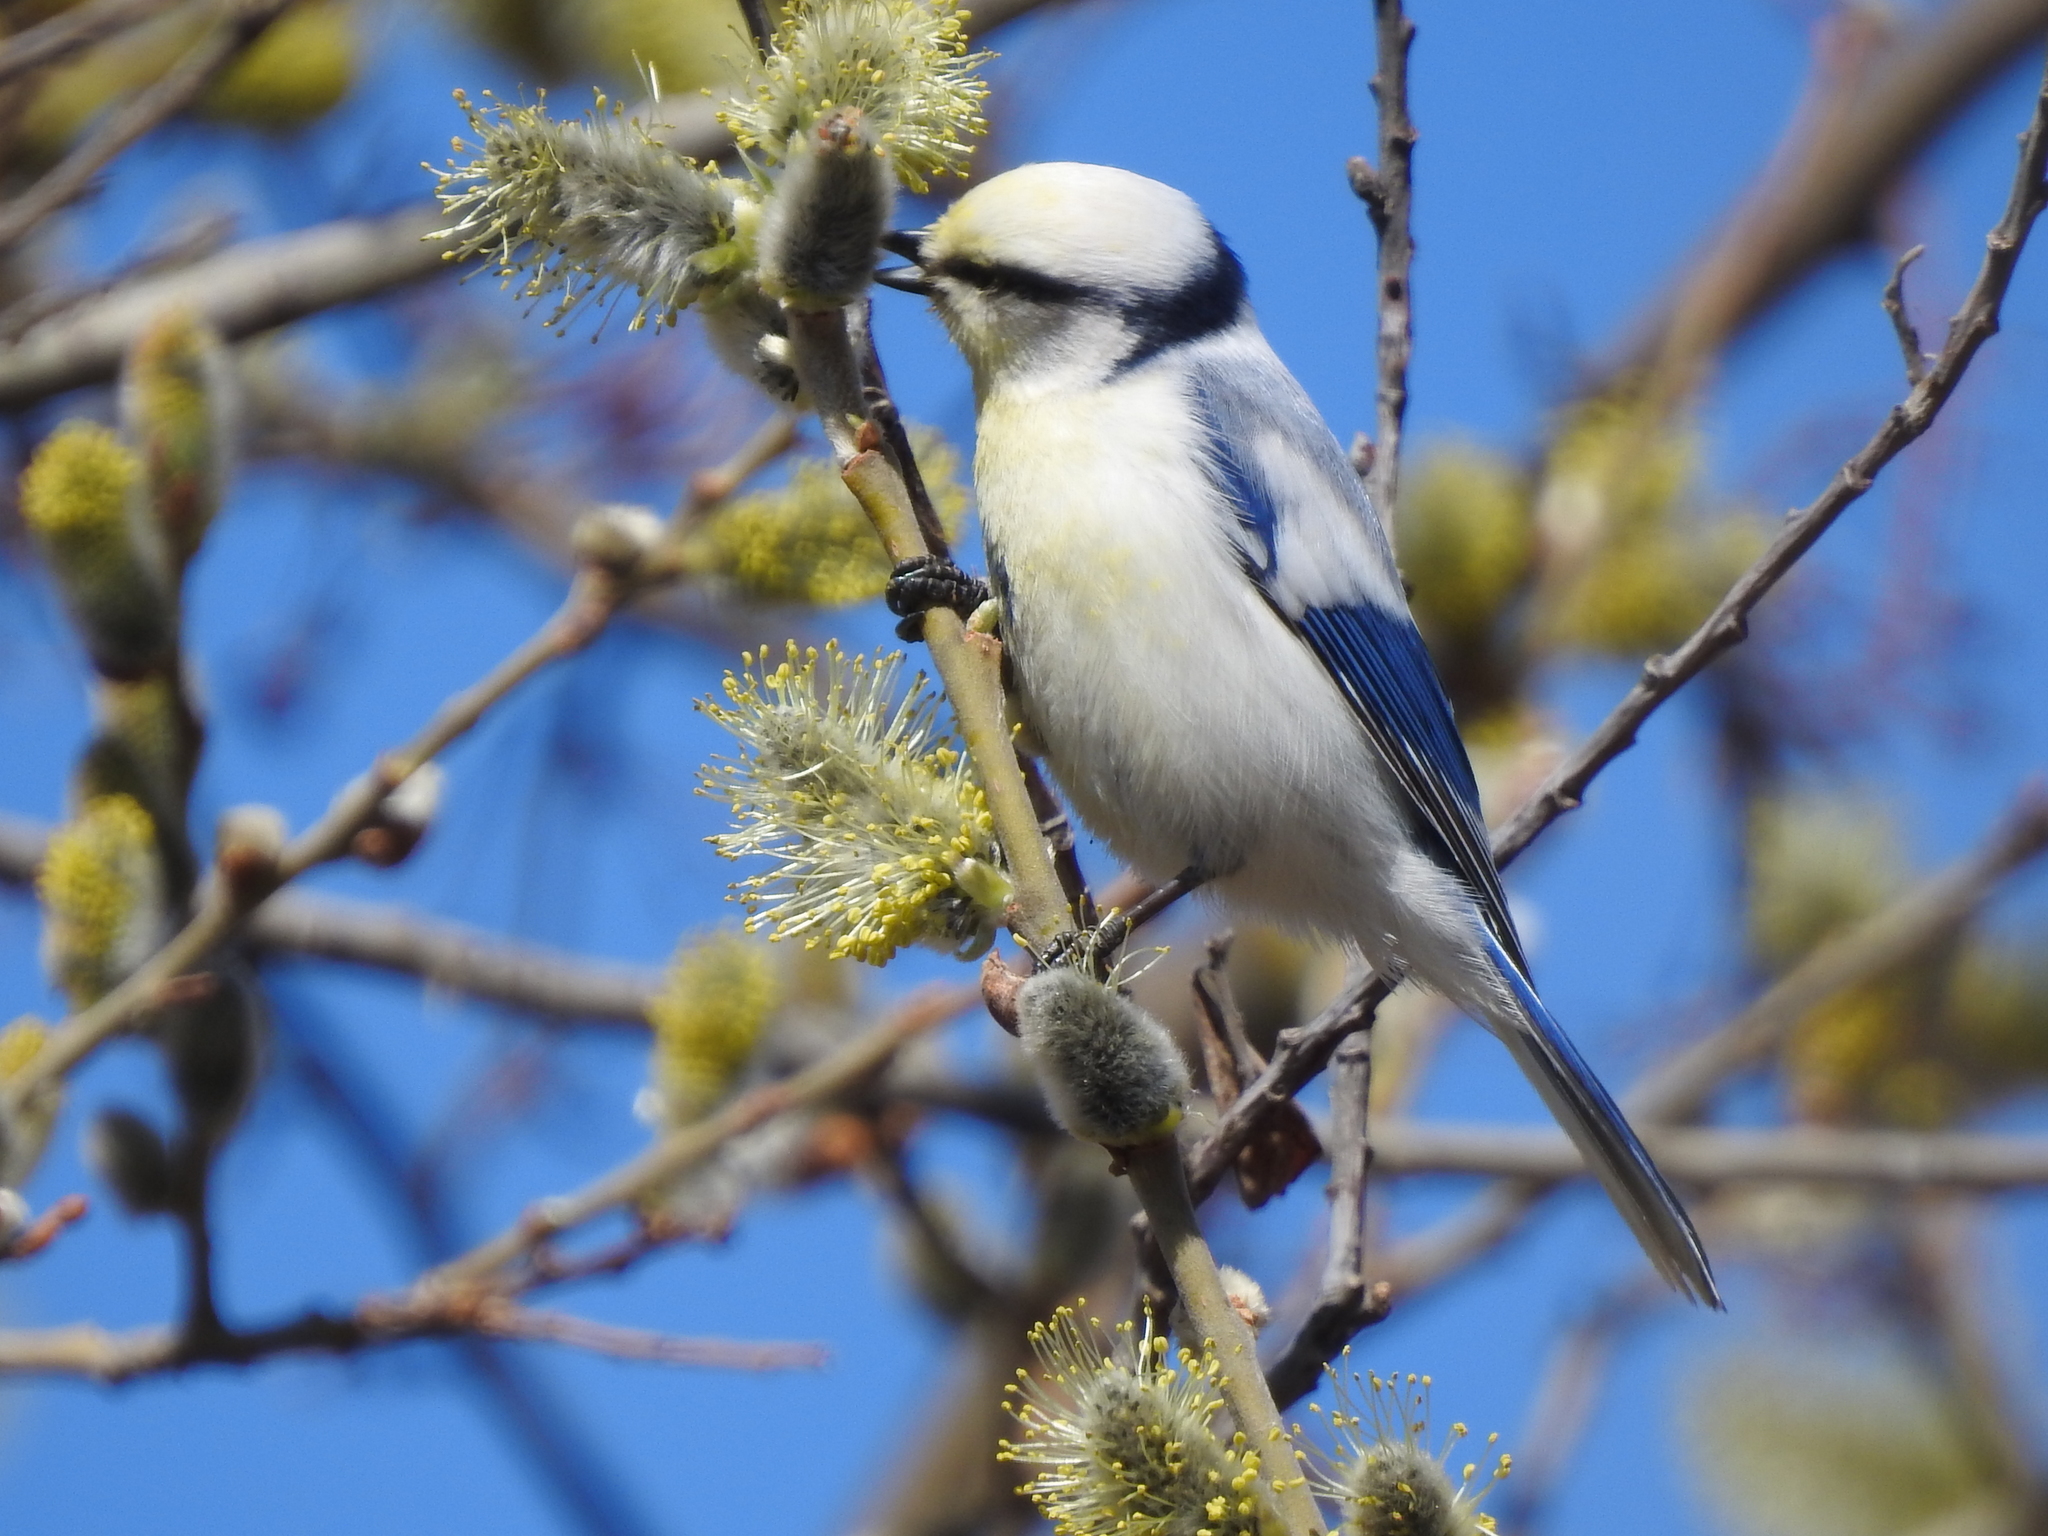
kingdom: Animalia
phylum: Chordata
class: Aves
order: Passeriformes
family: Paridae
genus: Cyanistes
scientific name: Cyanistes cyanus
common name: Azure tit
